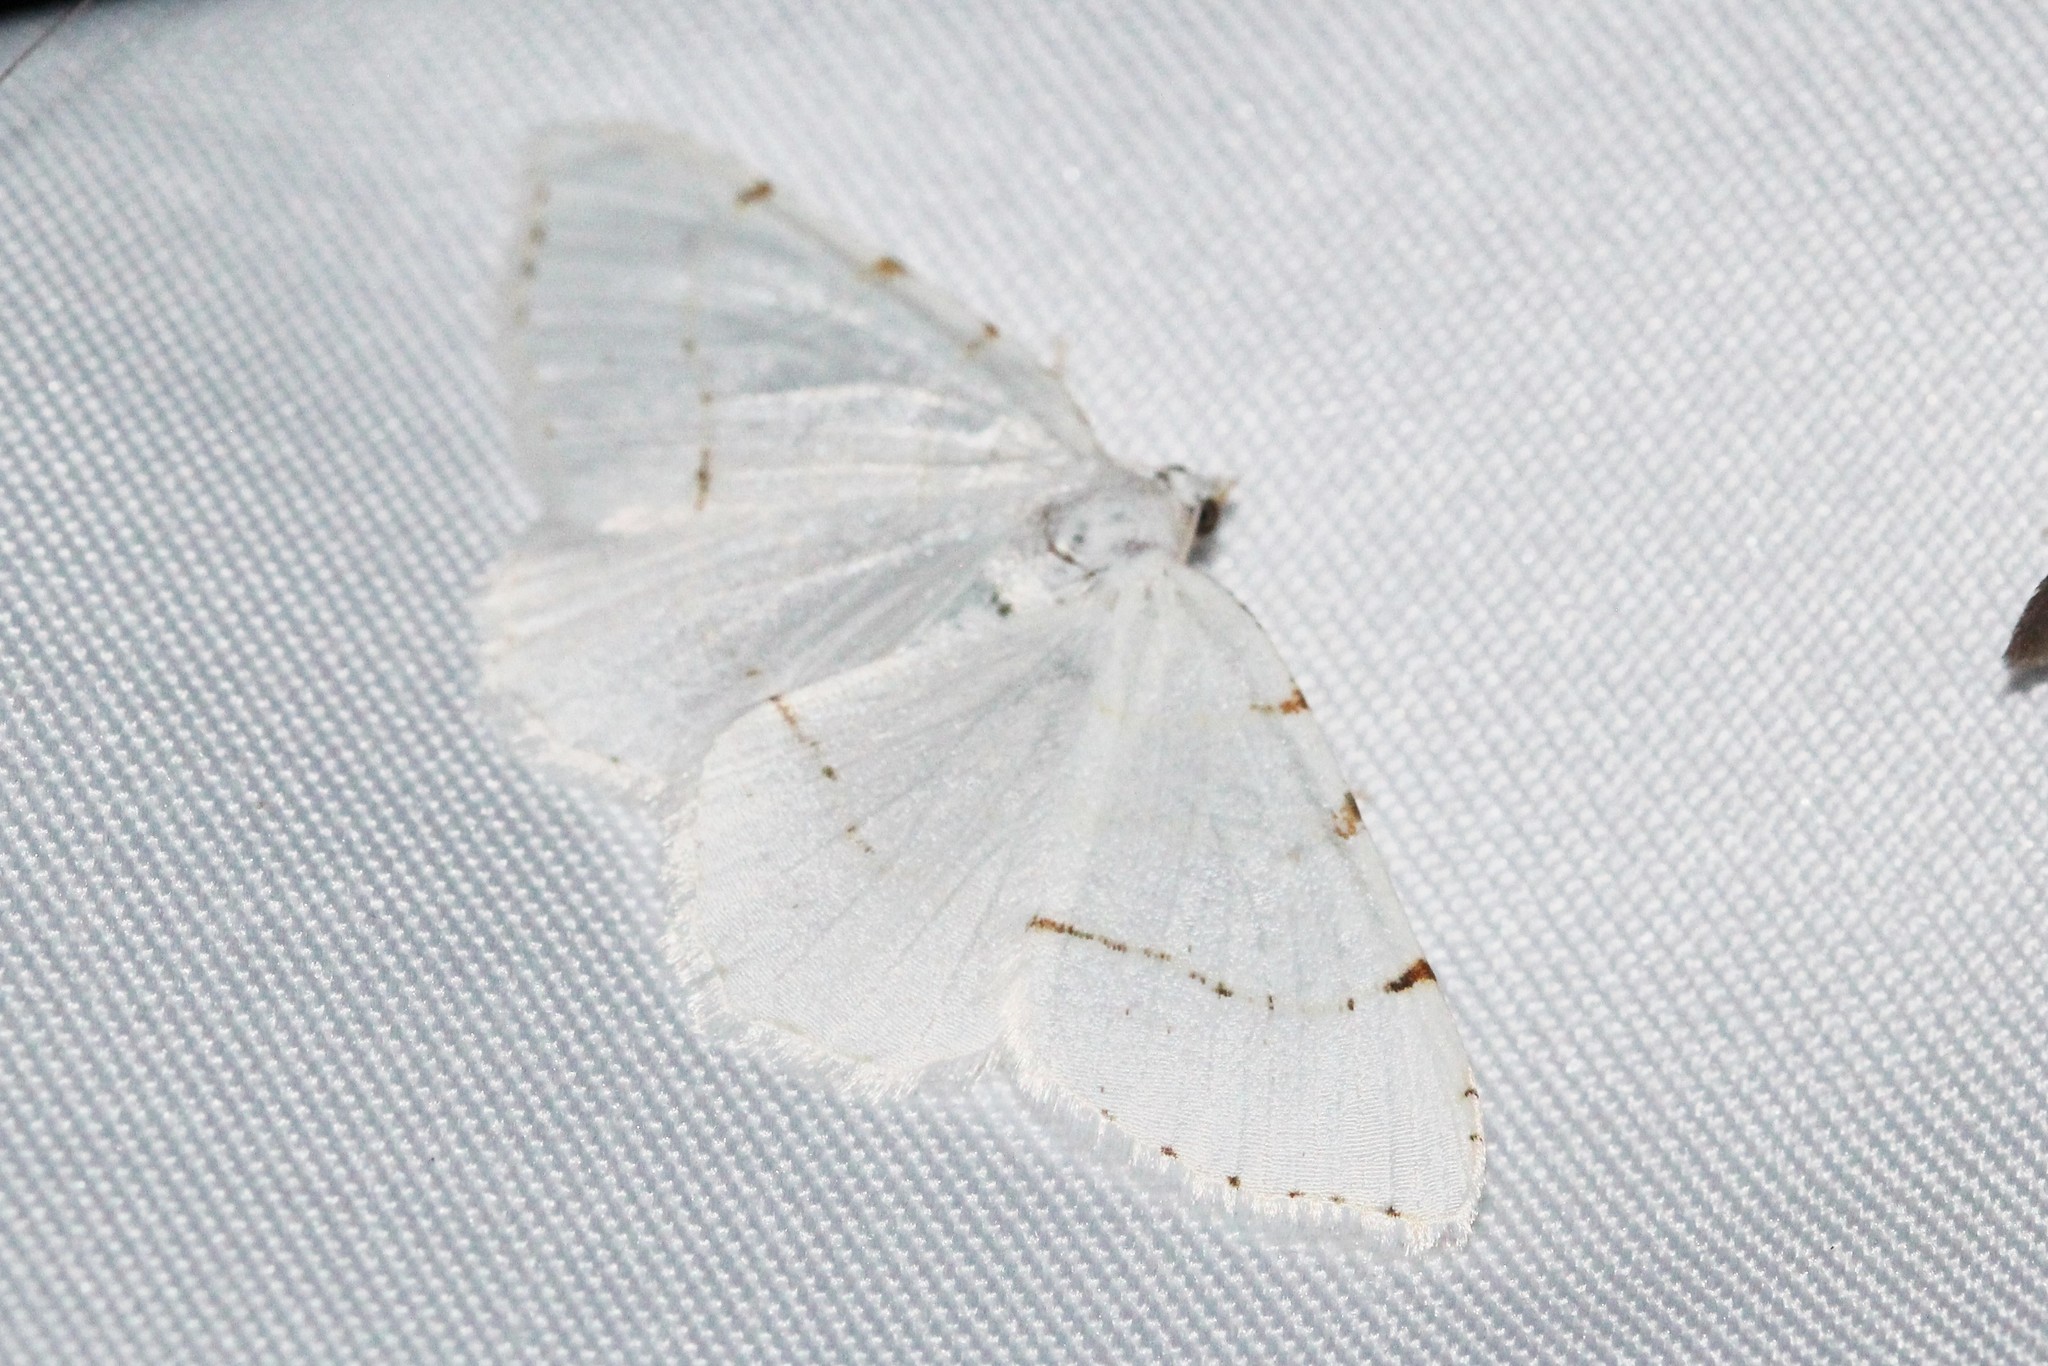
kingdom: Animalia
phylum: Arthropoda
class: Insecta
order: Lepidoptera
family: Geometridae
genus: Macaria
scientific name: Macaria pustularia
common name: Lesser maple spanworm moth
